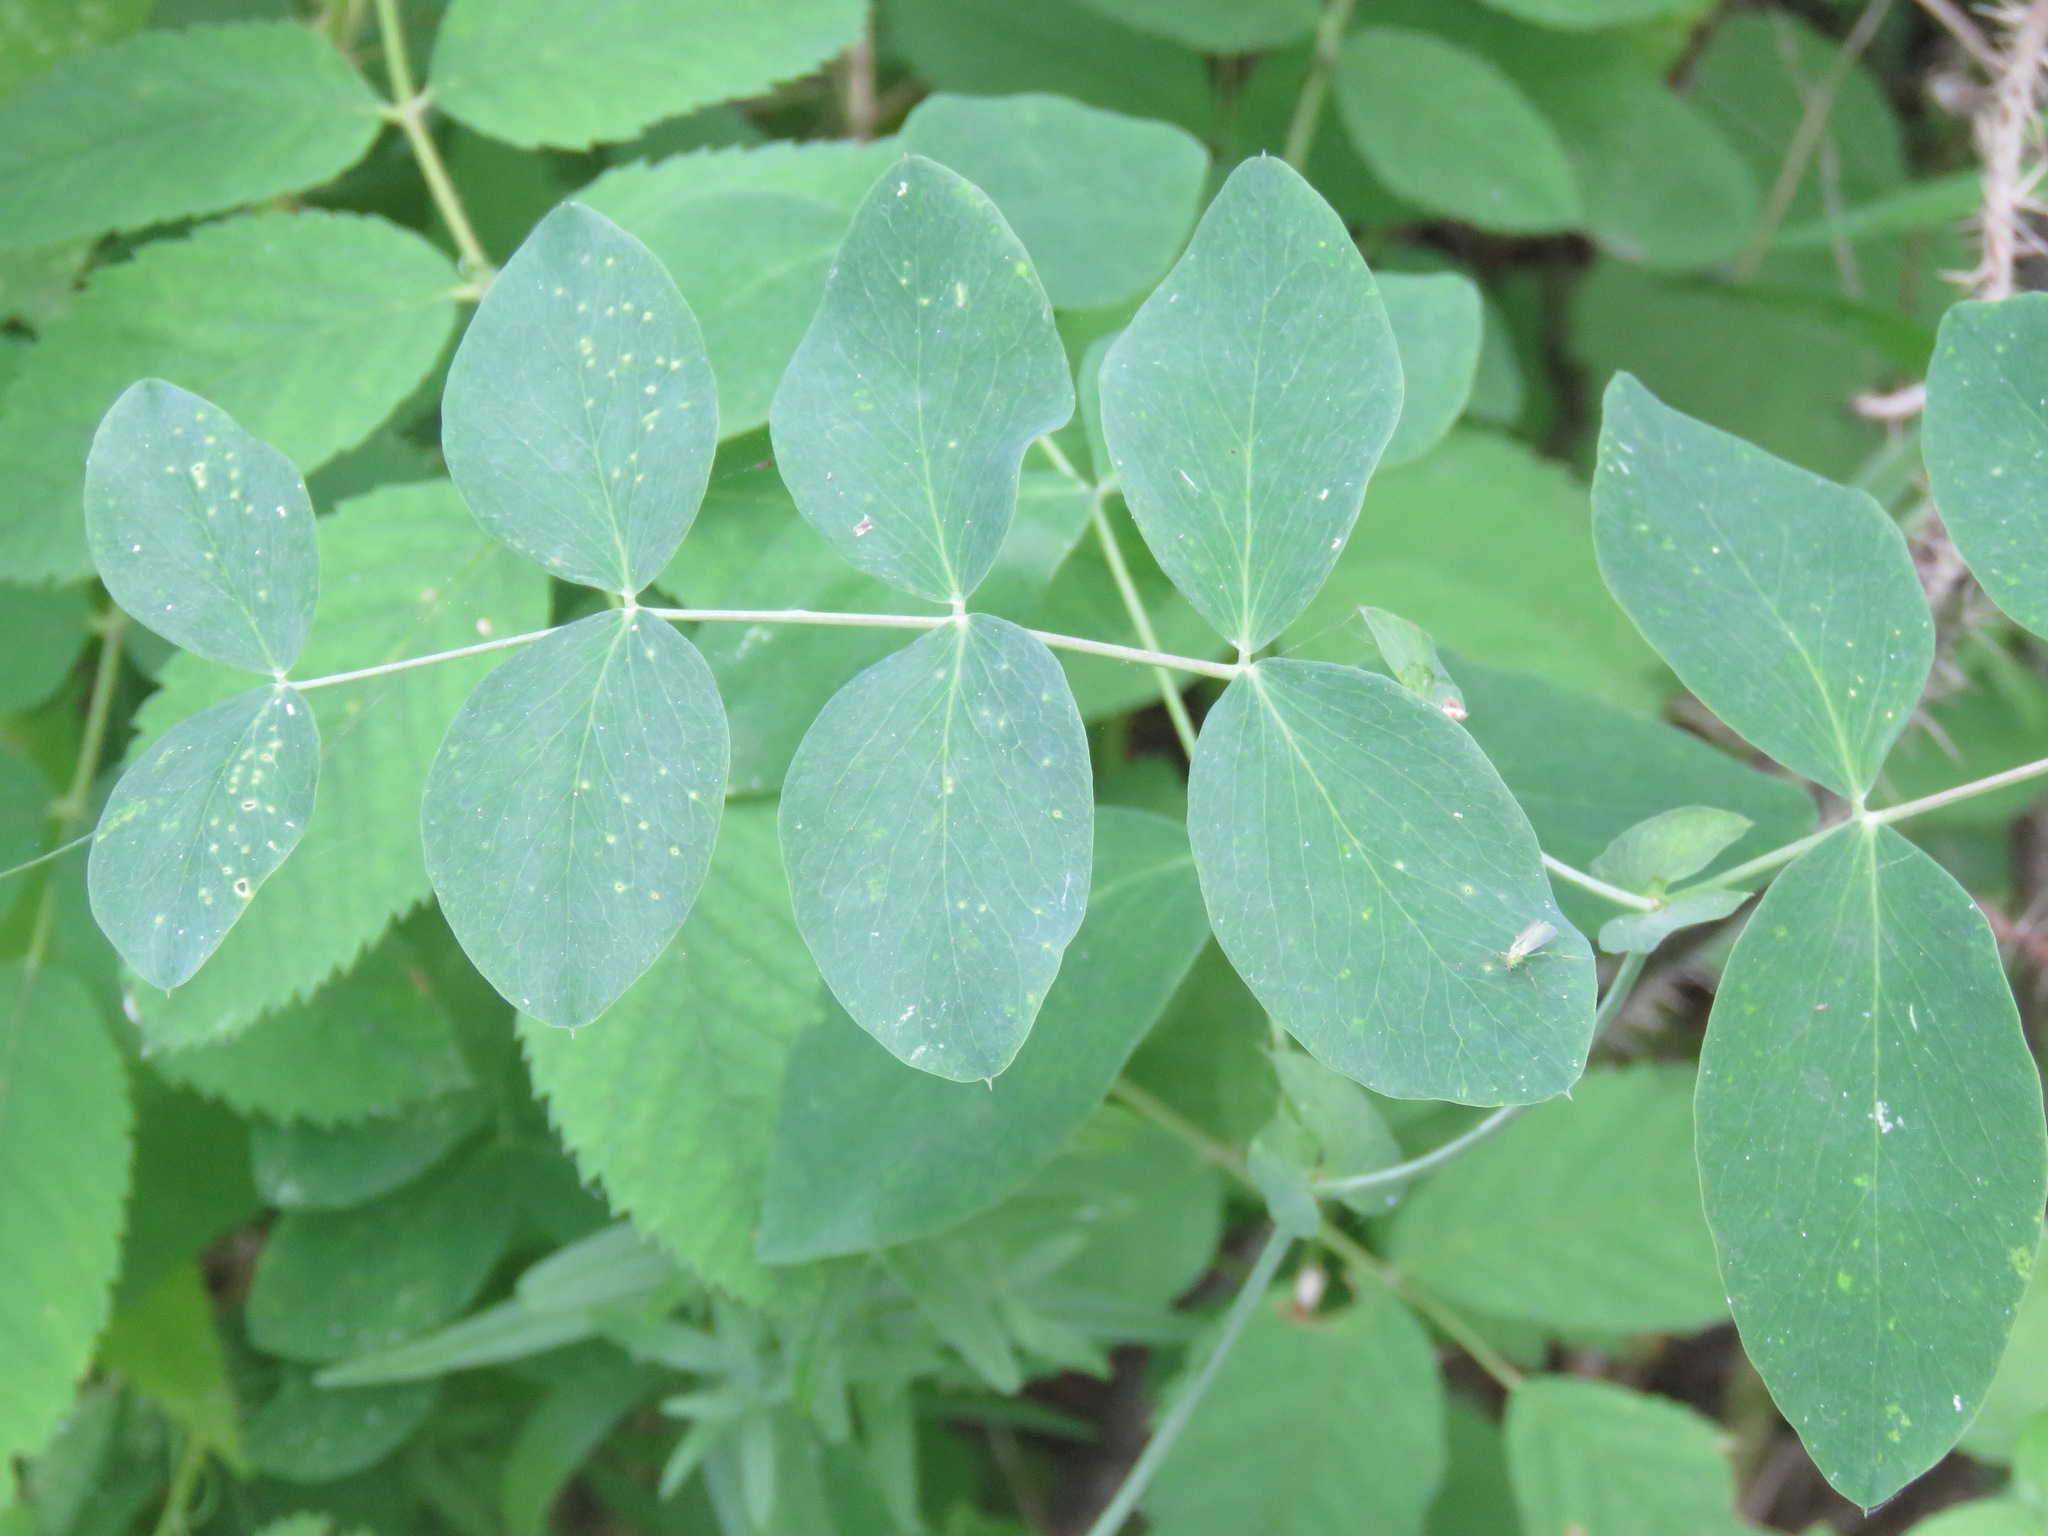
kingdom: Plantae
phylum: Tracheophyta
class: Magnoliopsida
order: Fabales
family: Fabaceae
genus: Lathyrus
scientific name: Lathyrus ochroleucus
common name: Pale vetchling
